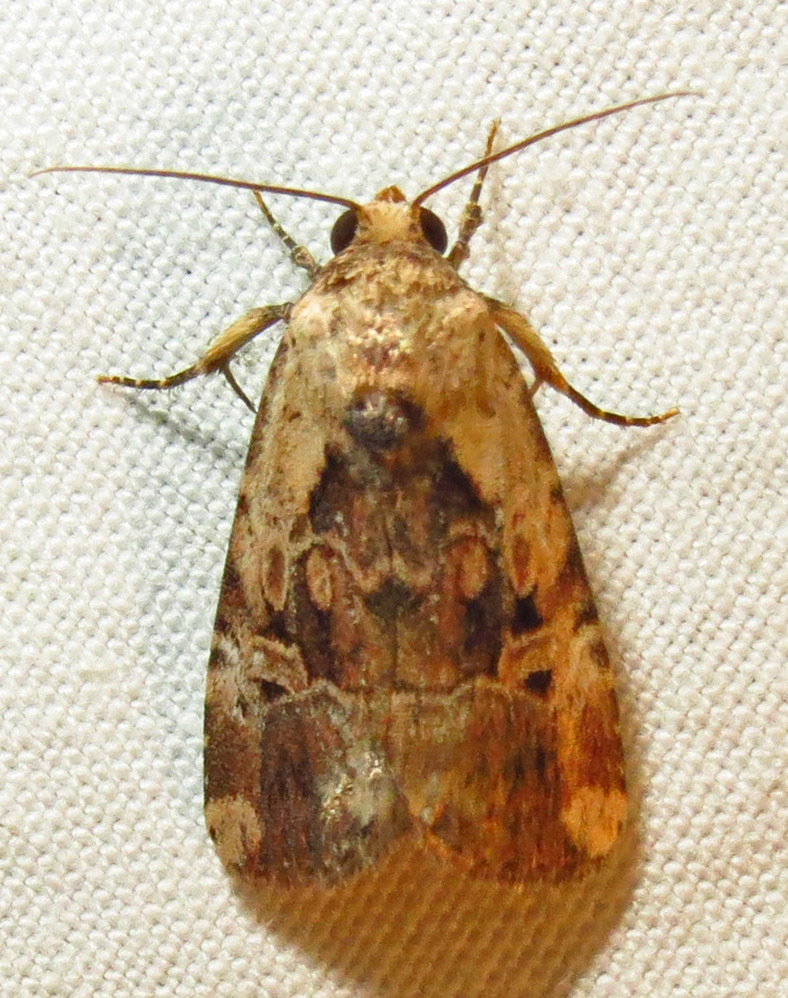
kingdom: Animalia
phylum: Arthropoda
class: Insecta
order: Lepidoptera
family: Noctuidae
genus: Elaphria
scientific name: Elaphria chalcedonia
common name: Chalcedony midget
